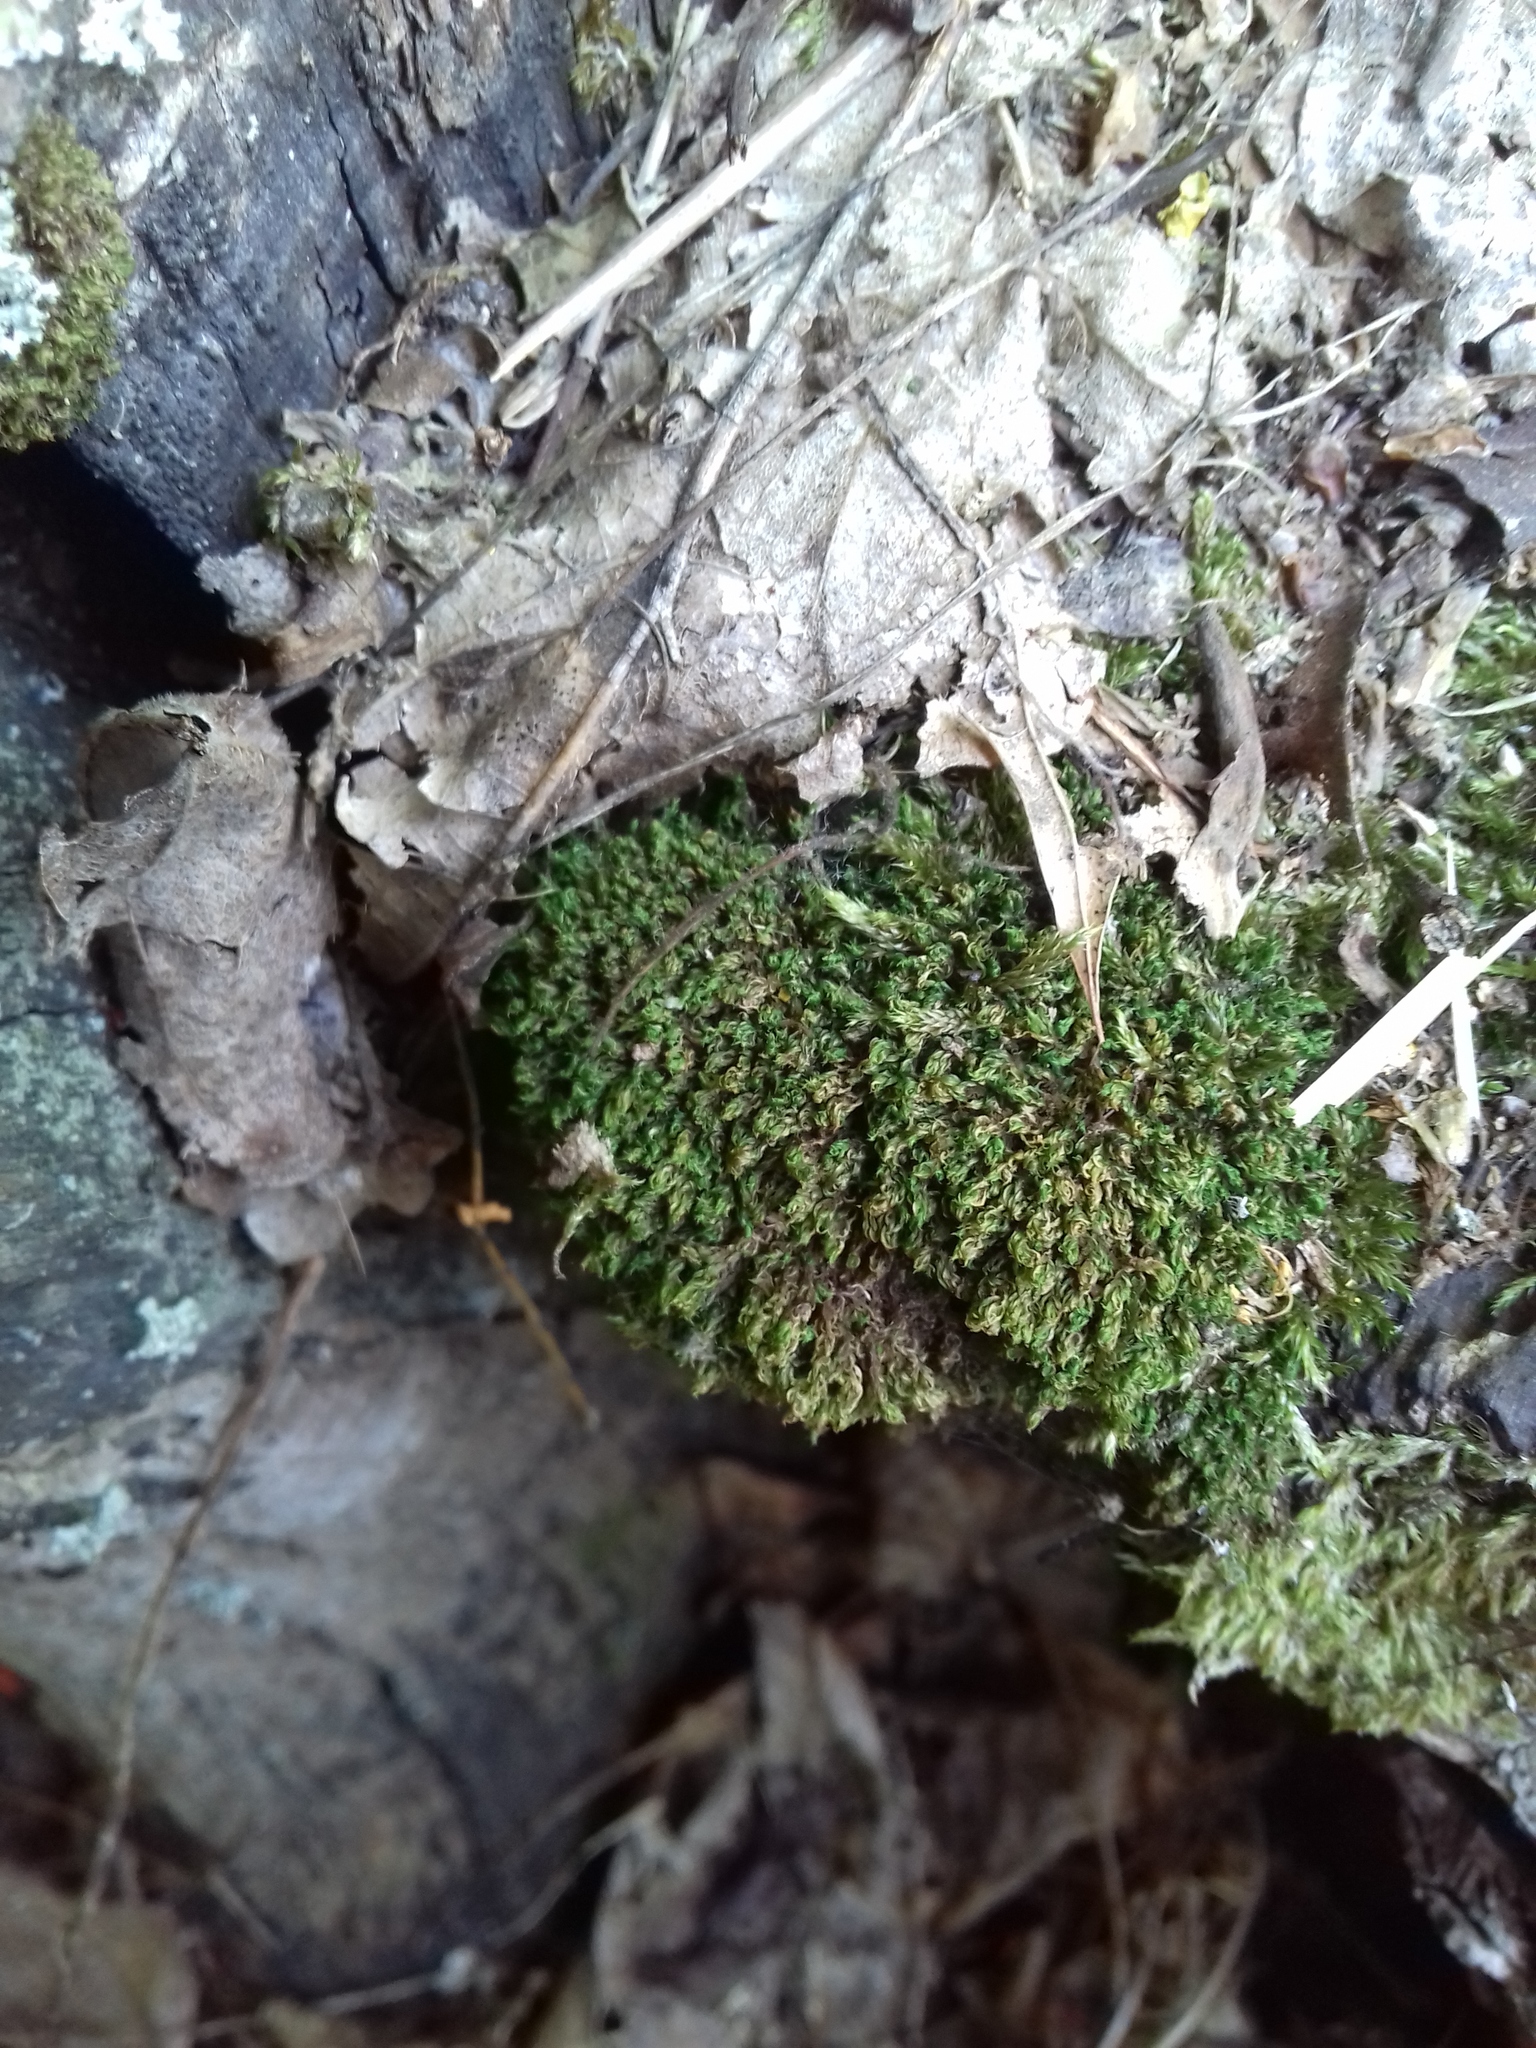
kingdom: Plantae
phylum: Bryophyta
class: Bryopsida
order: Bryales
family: Bryaceae
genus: Rosulabryum
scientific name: Rosulabryum moravicum
